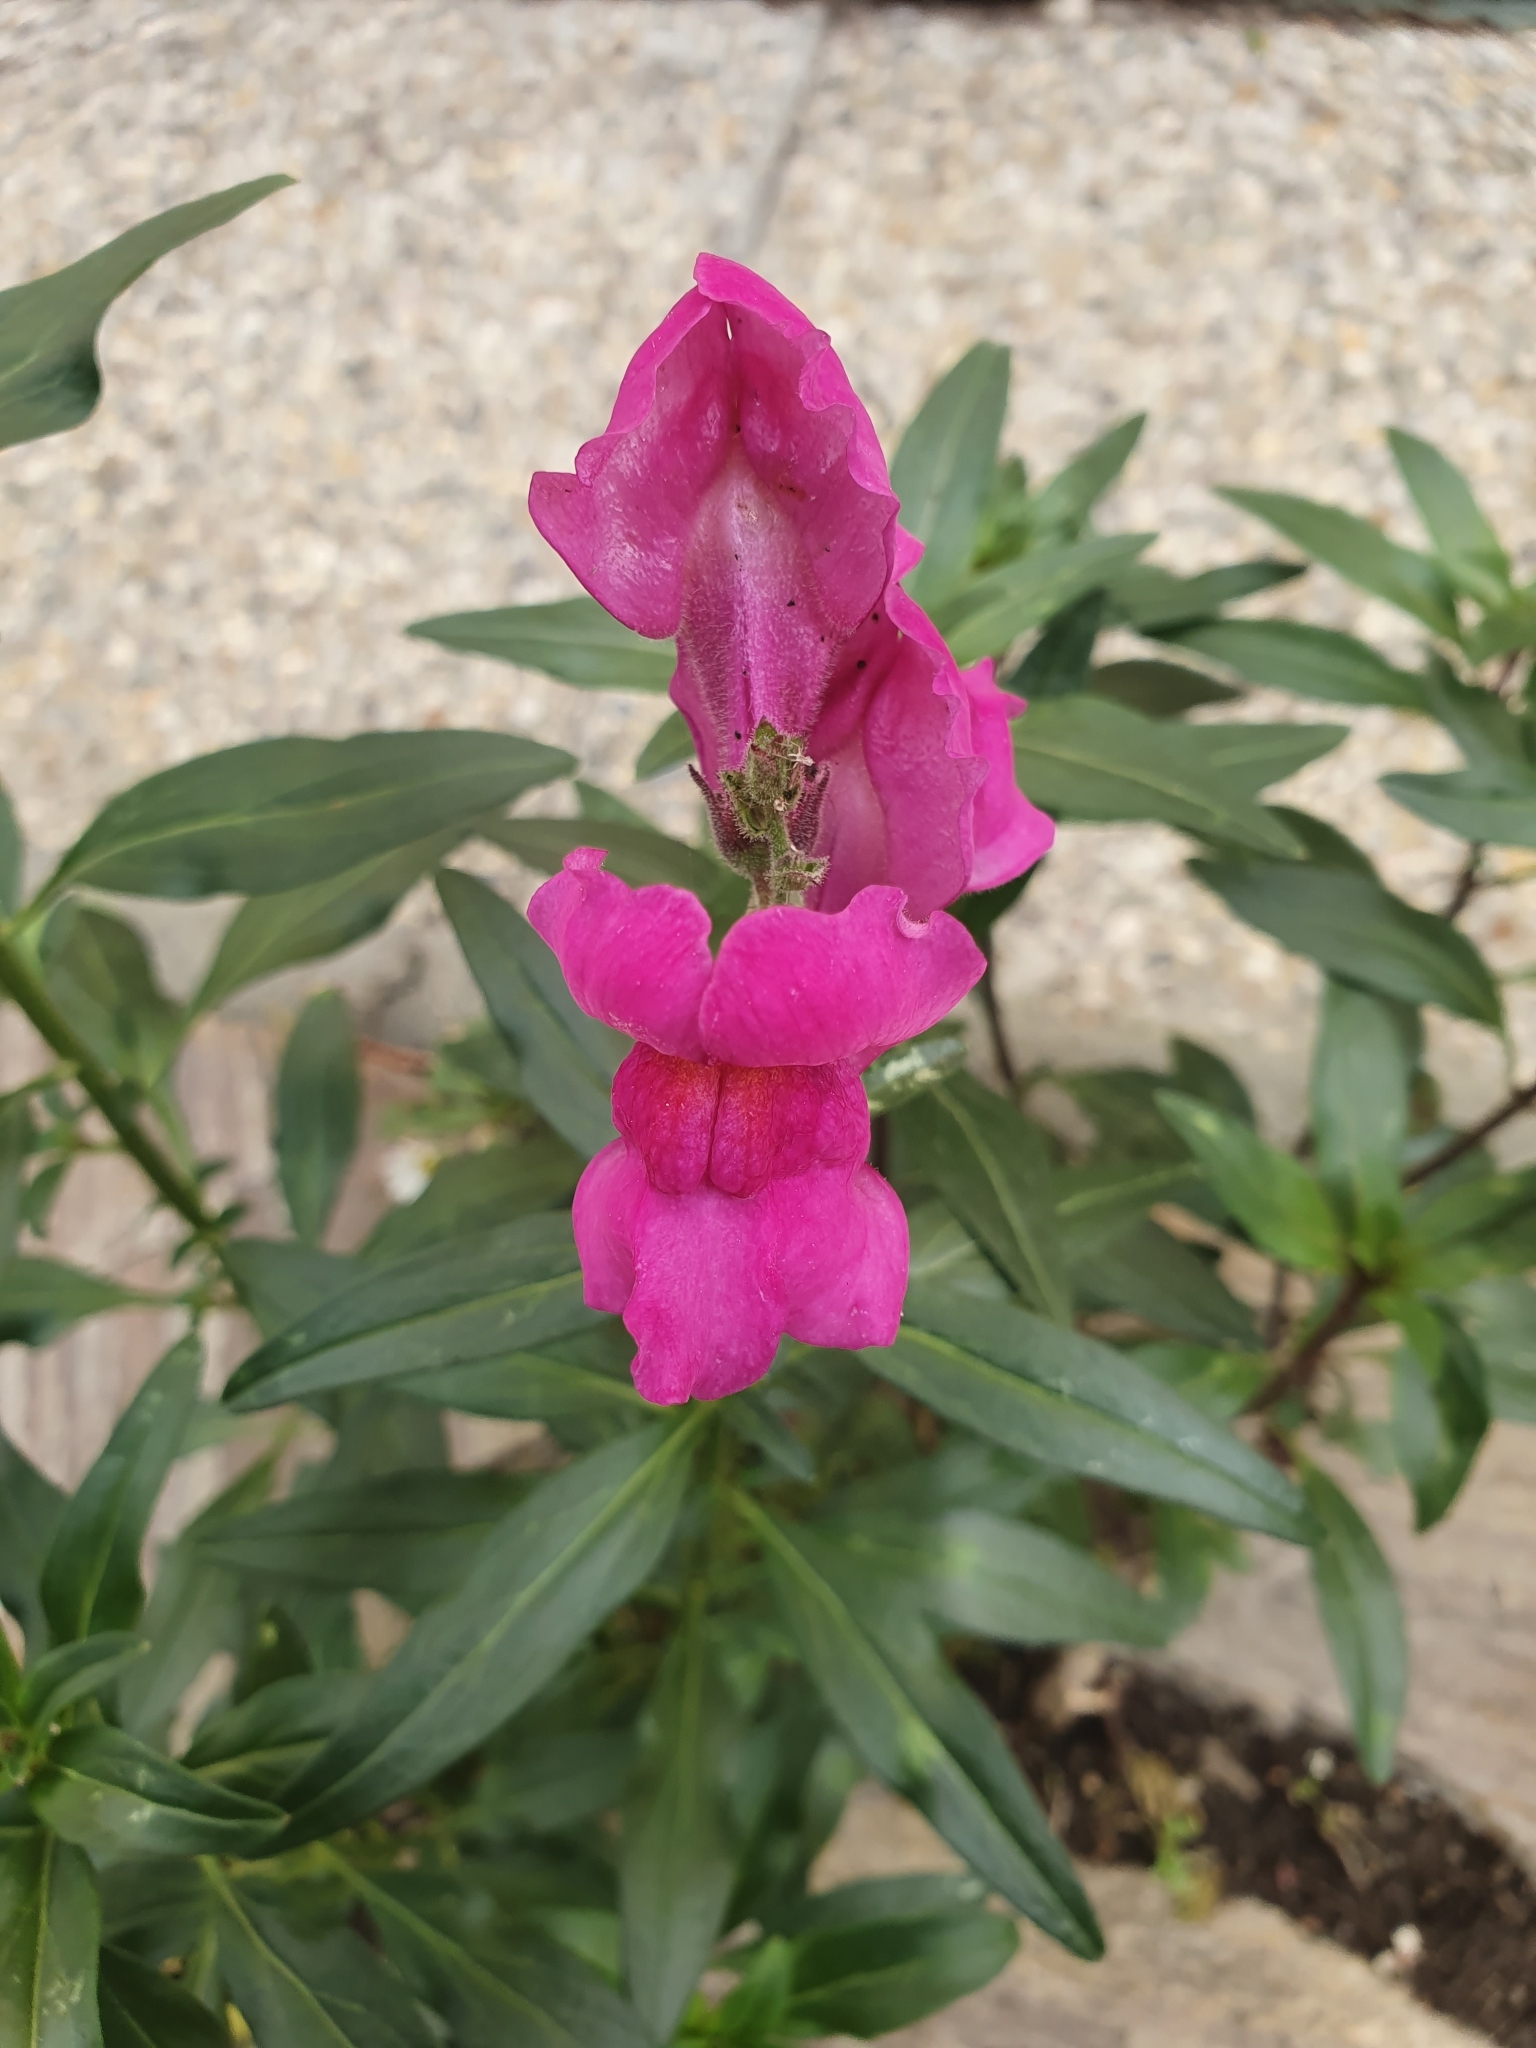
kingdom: Plantae
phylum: Tracheophyta
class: Magnoliopsida
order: Lamiales
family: Plantaginaceae
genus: Antirrhinum
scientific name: Antirrhinum majus
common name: Snapdragon
